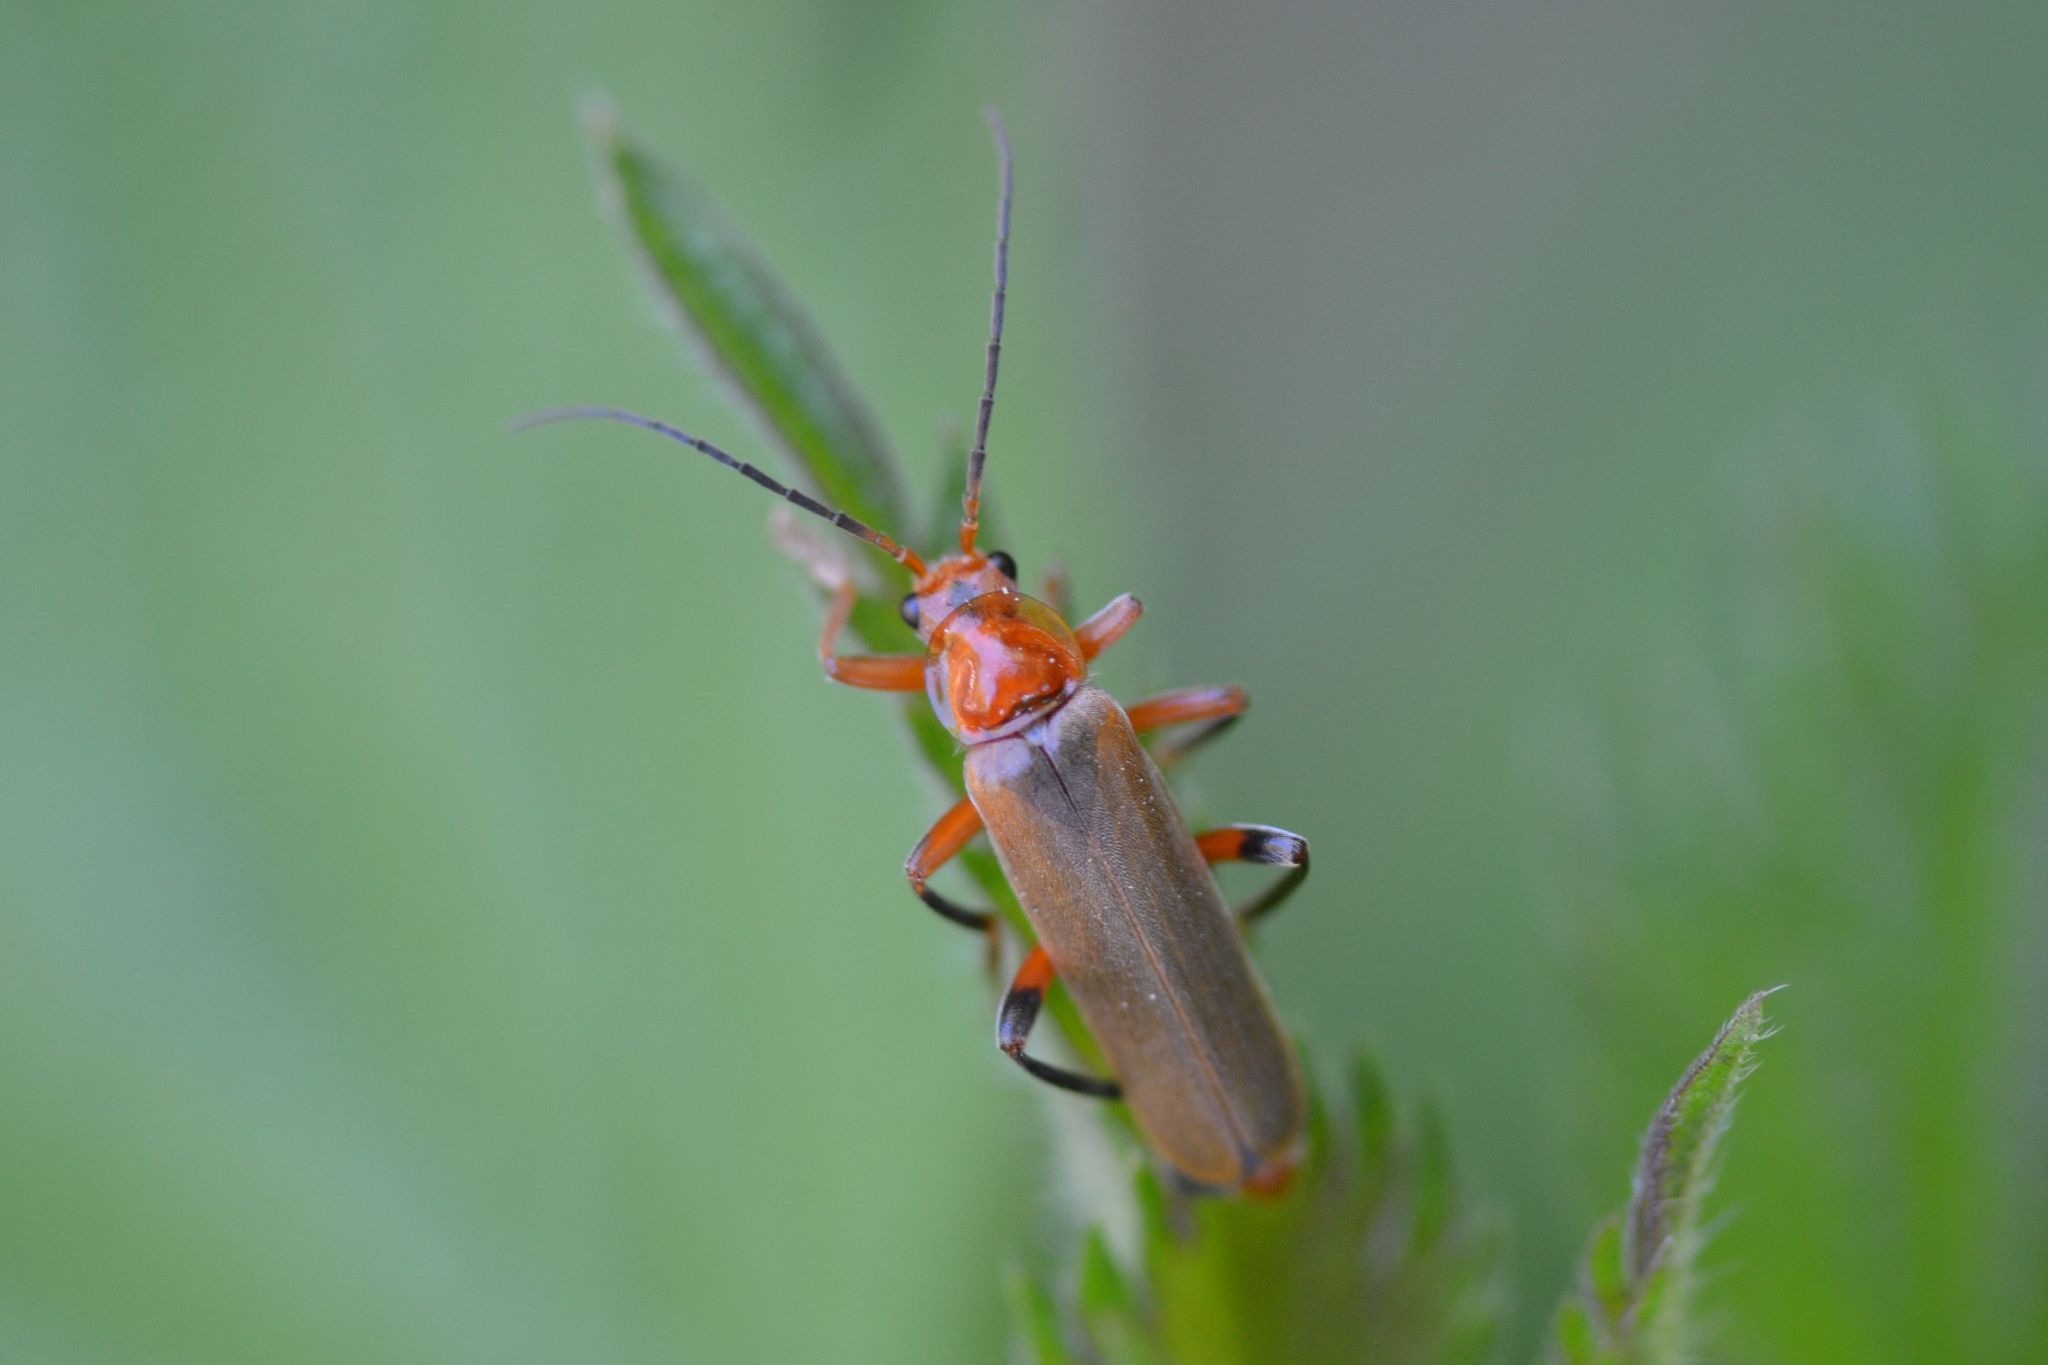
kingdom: Animalia
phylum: Arthropoda
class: Insecta
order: Coleoptera
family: Cantharidae
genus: Cantharis
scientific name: Cantharis livida
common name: Livid soldier beetle
